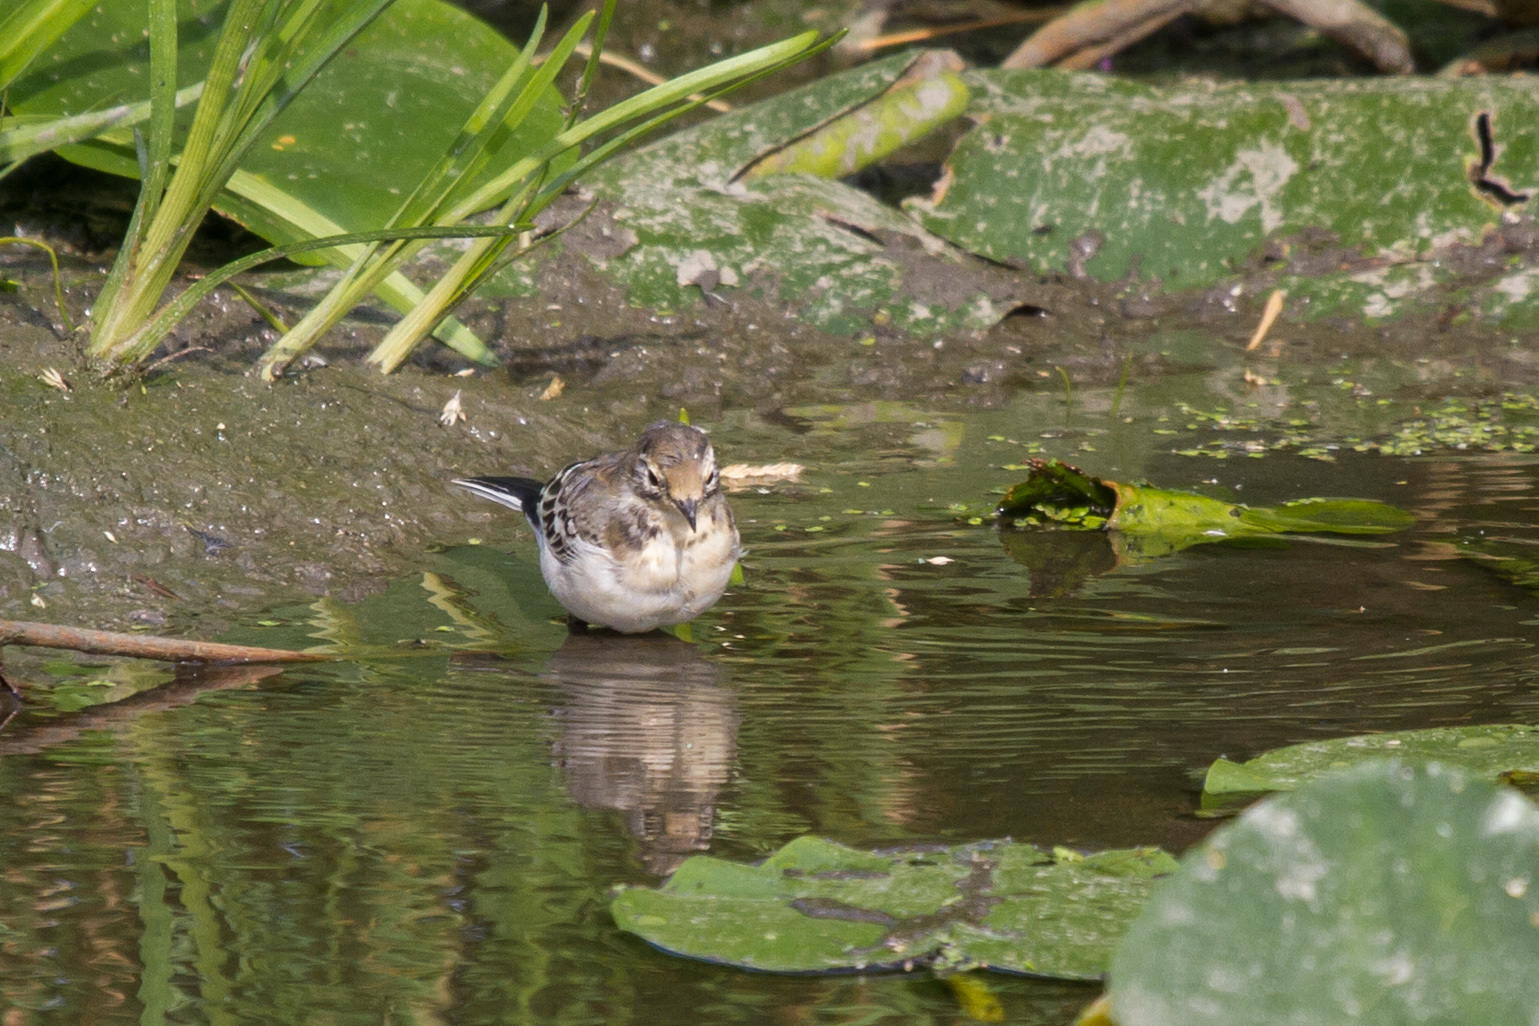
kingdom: Animalia
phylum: Chordata
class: Aves
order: Passeriformes
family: Motacillidae
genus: Motacilla
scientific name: Motacilla citreola
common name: Citrine wagtail
